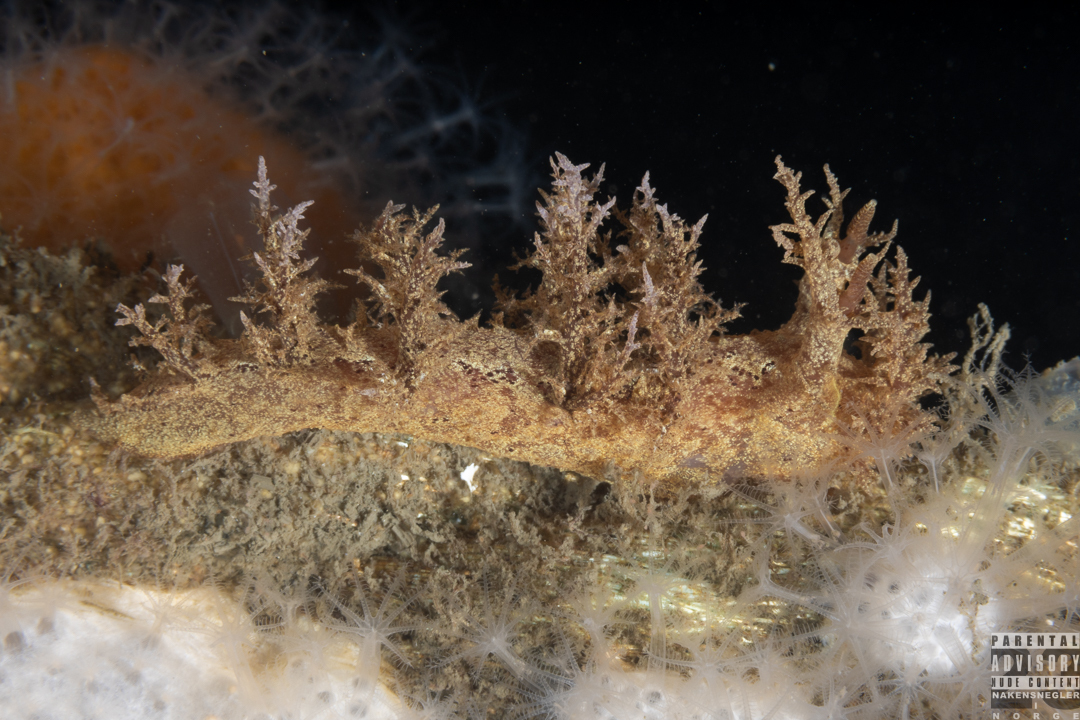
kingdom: Animalia
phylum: Mollusca
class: Gastropoda
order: Nudibranchia
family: Dendronotidae
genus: Dendronotus
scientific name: Dendronotus europaeus
